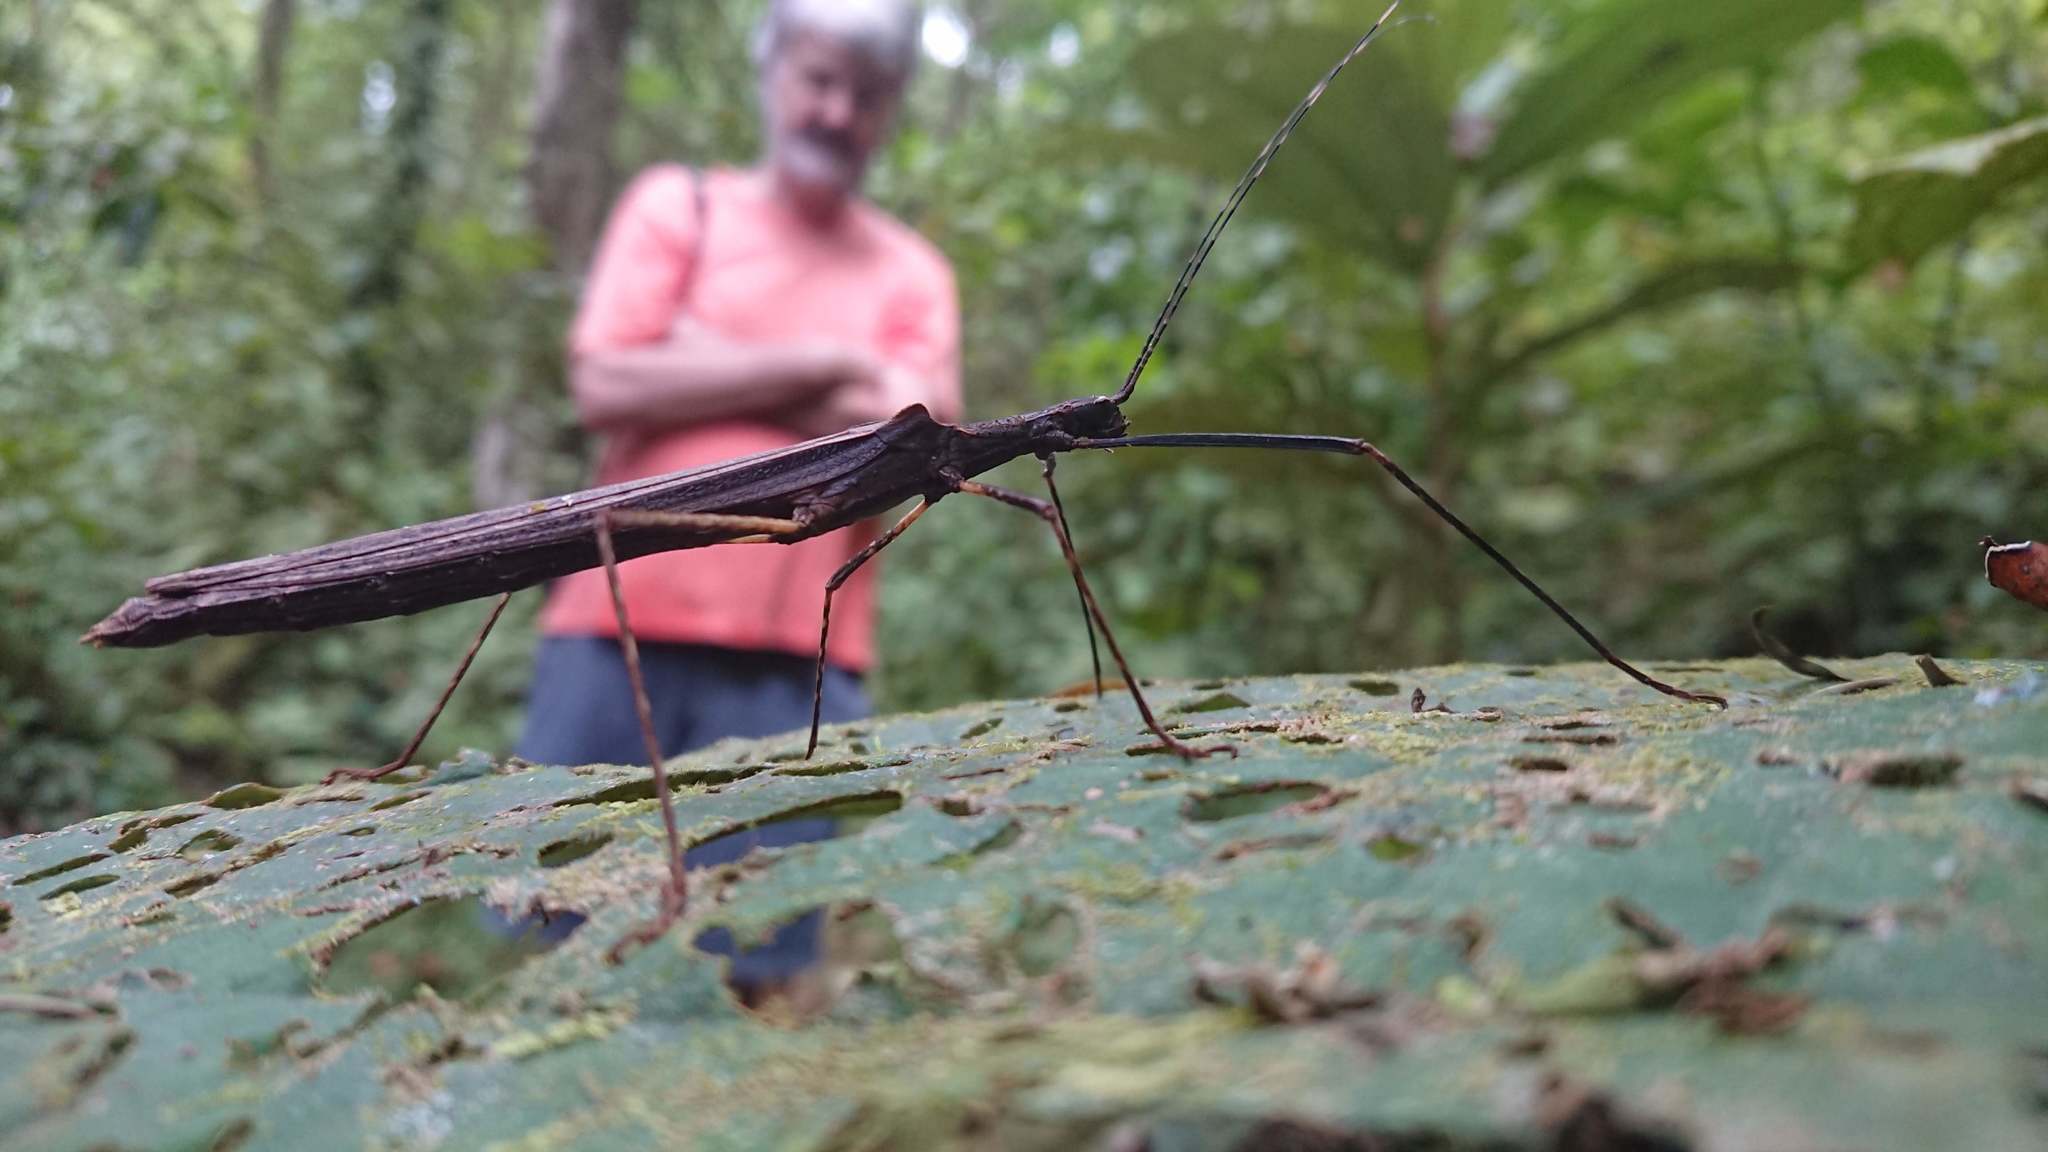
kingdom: Animalia
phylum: Arthropoda
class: Insecta
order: Phasmida
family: Pseudophasmatidae
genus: Pseudophasma
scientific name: Pseudophasma unicolor
